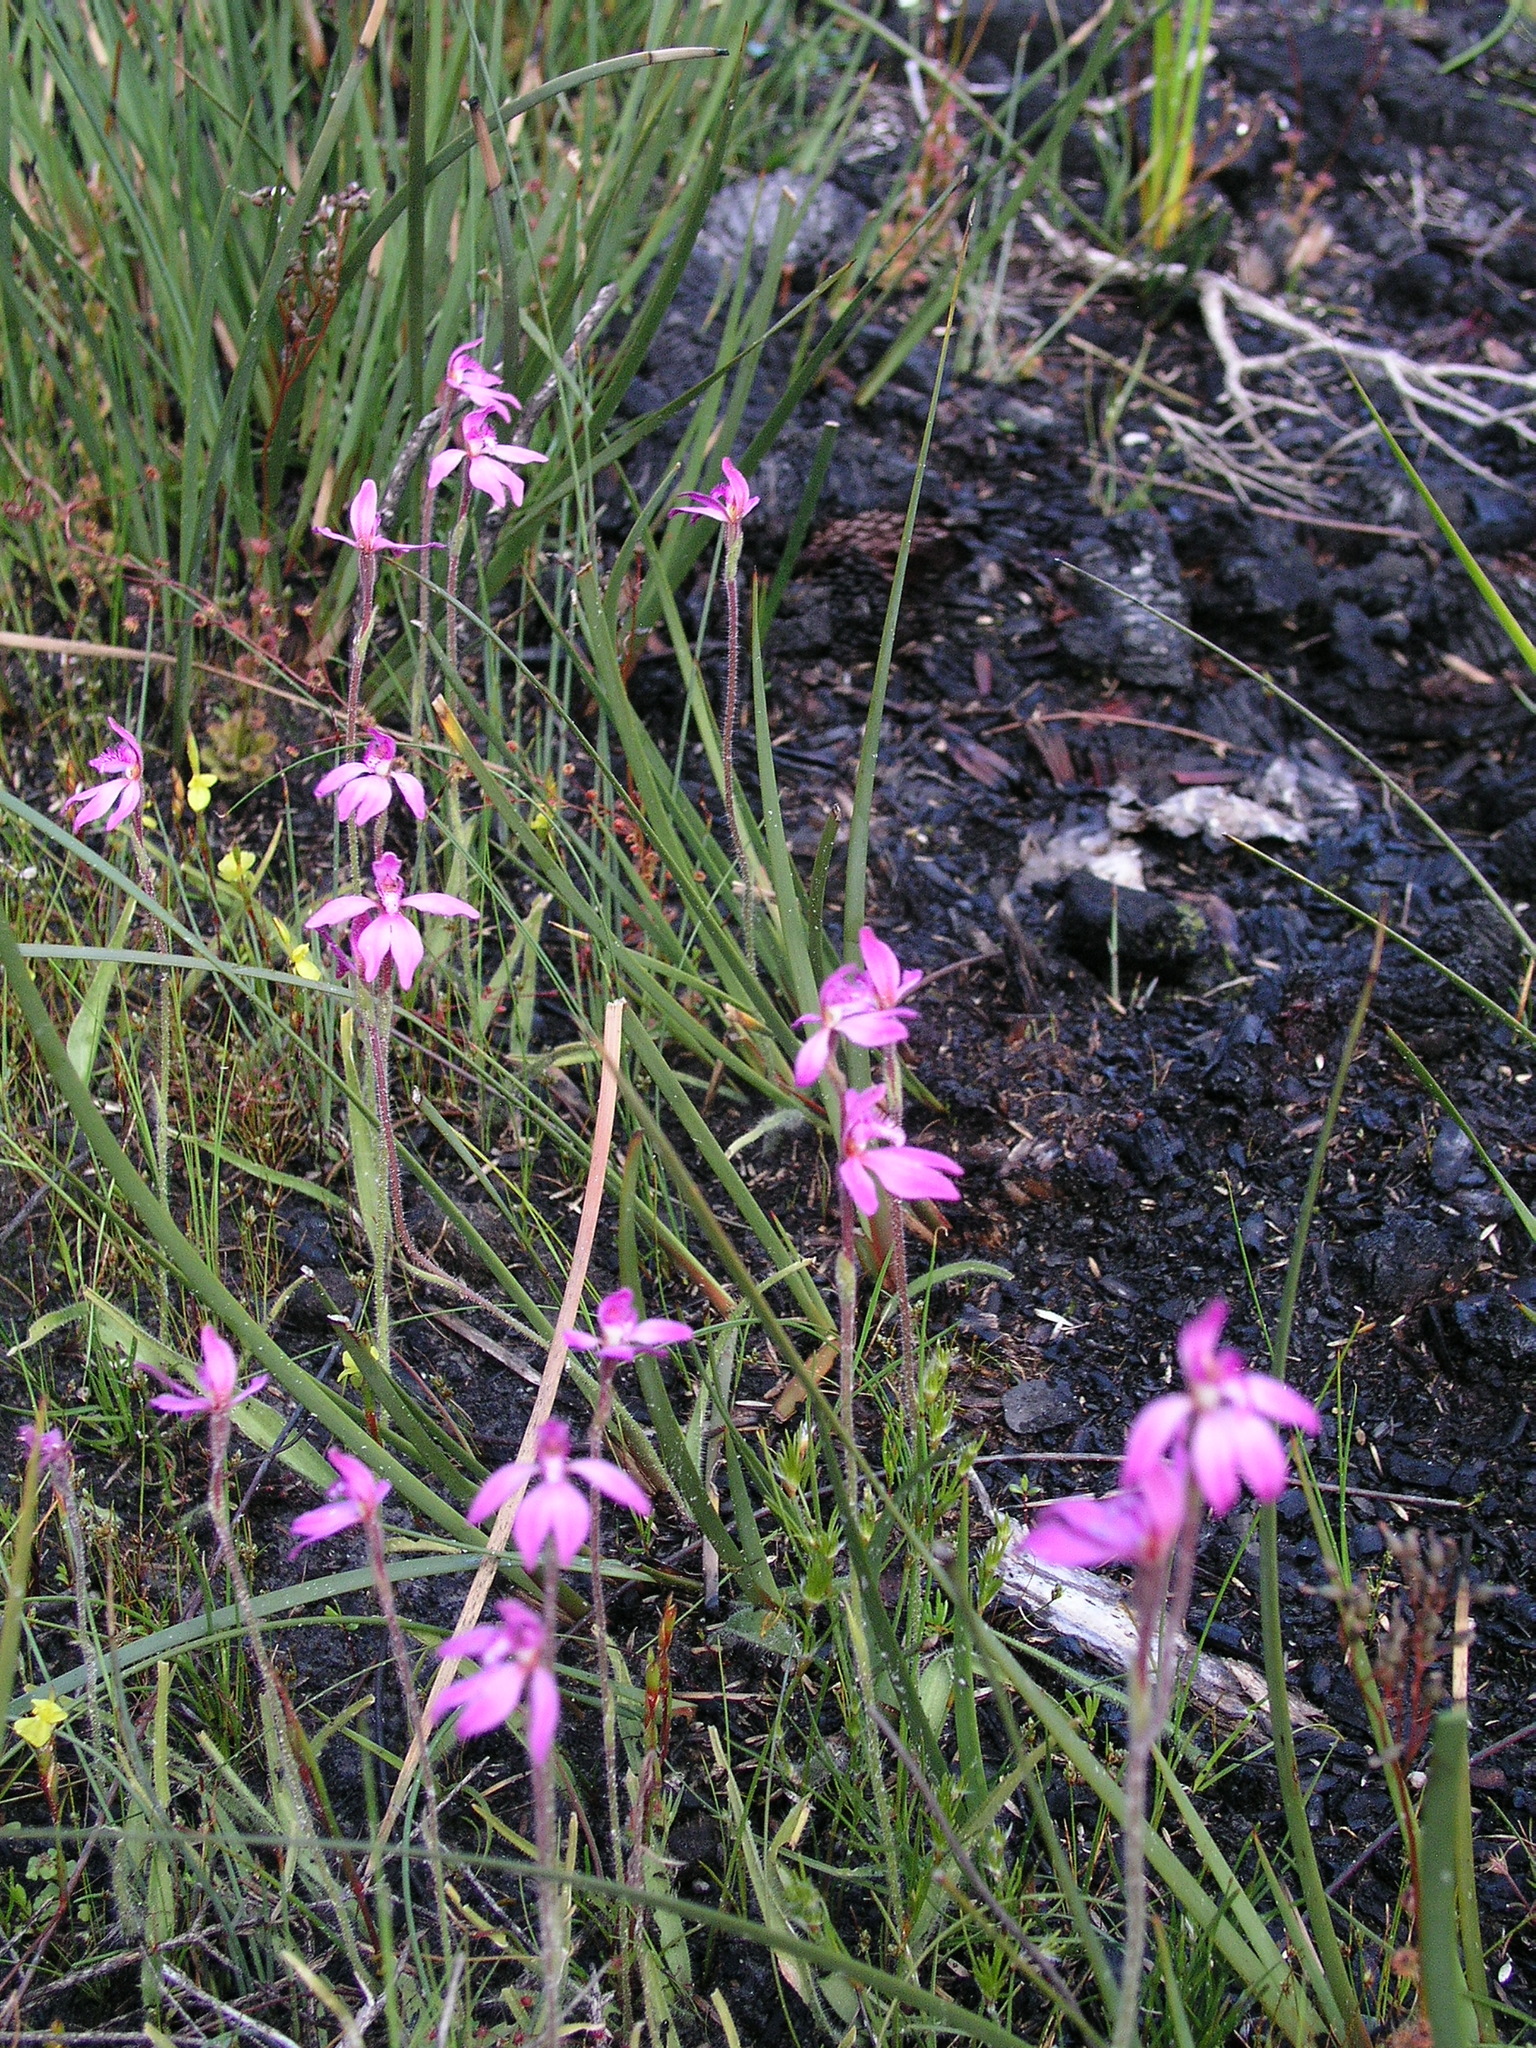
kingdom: Plantae
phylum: Tracheophyta
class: Liliopsida
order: Asparagales
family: Orchidaceae
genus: Caladenia
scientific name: Caladenia nana
